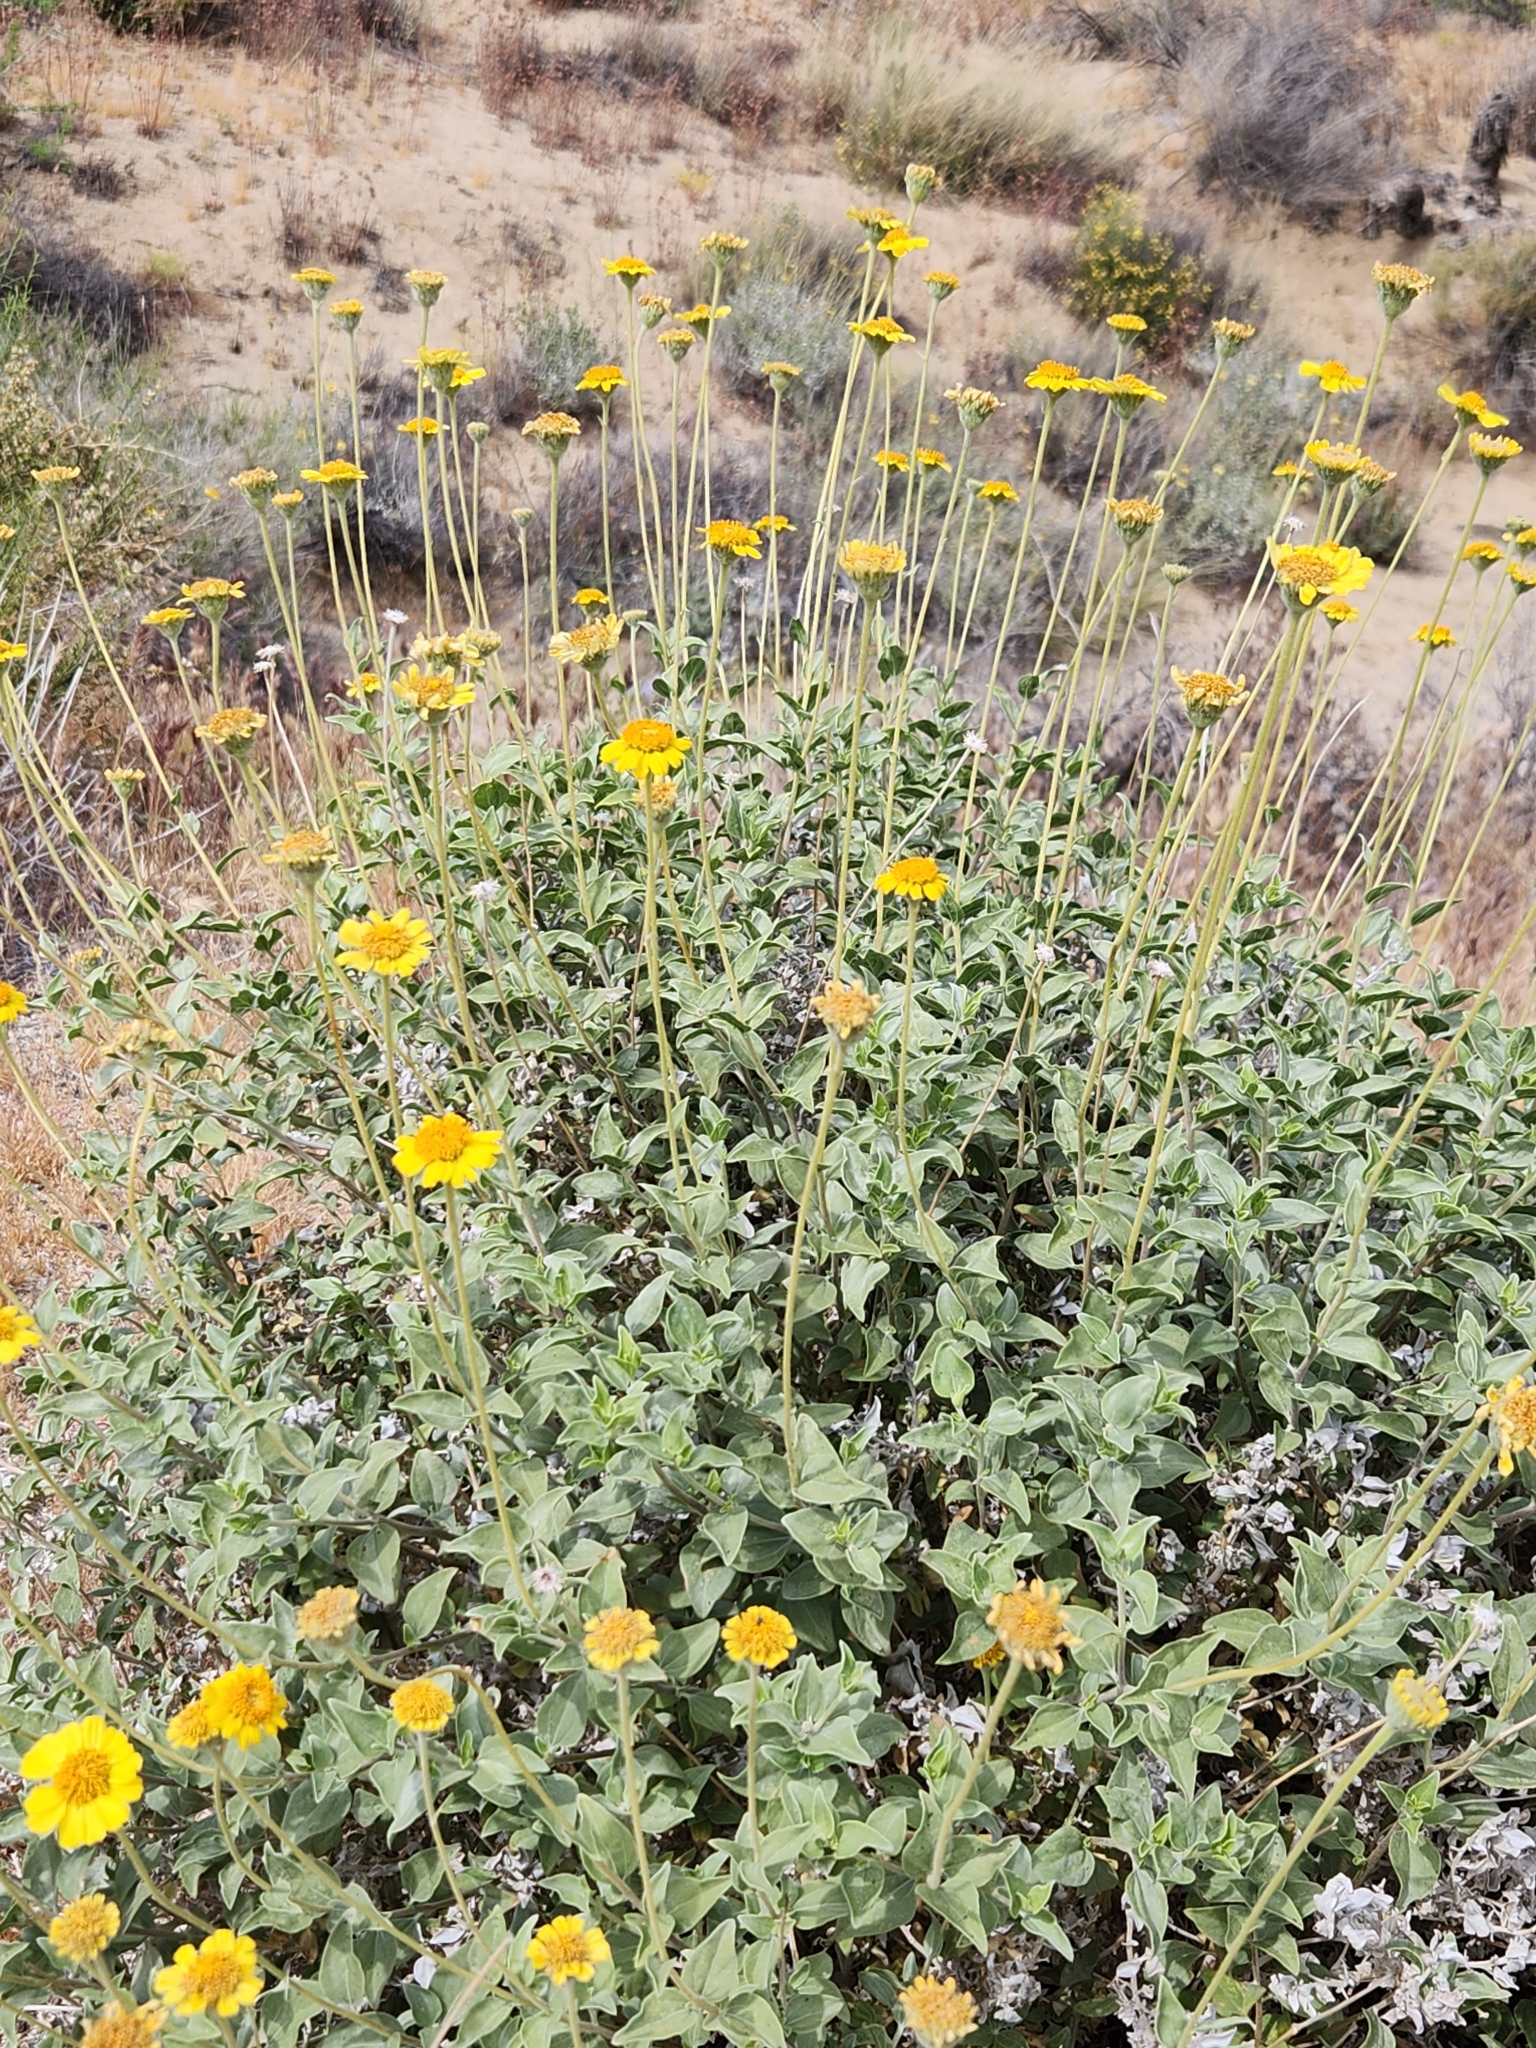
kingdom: Plantae
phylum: Tracheophyta
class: Magnoliopsida
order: Asterales
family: Asteraceae
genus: Encelia
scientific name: Encelia actoni
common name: Acton encelia
